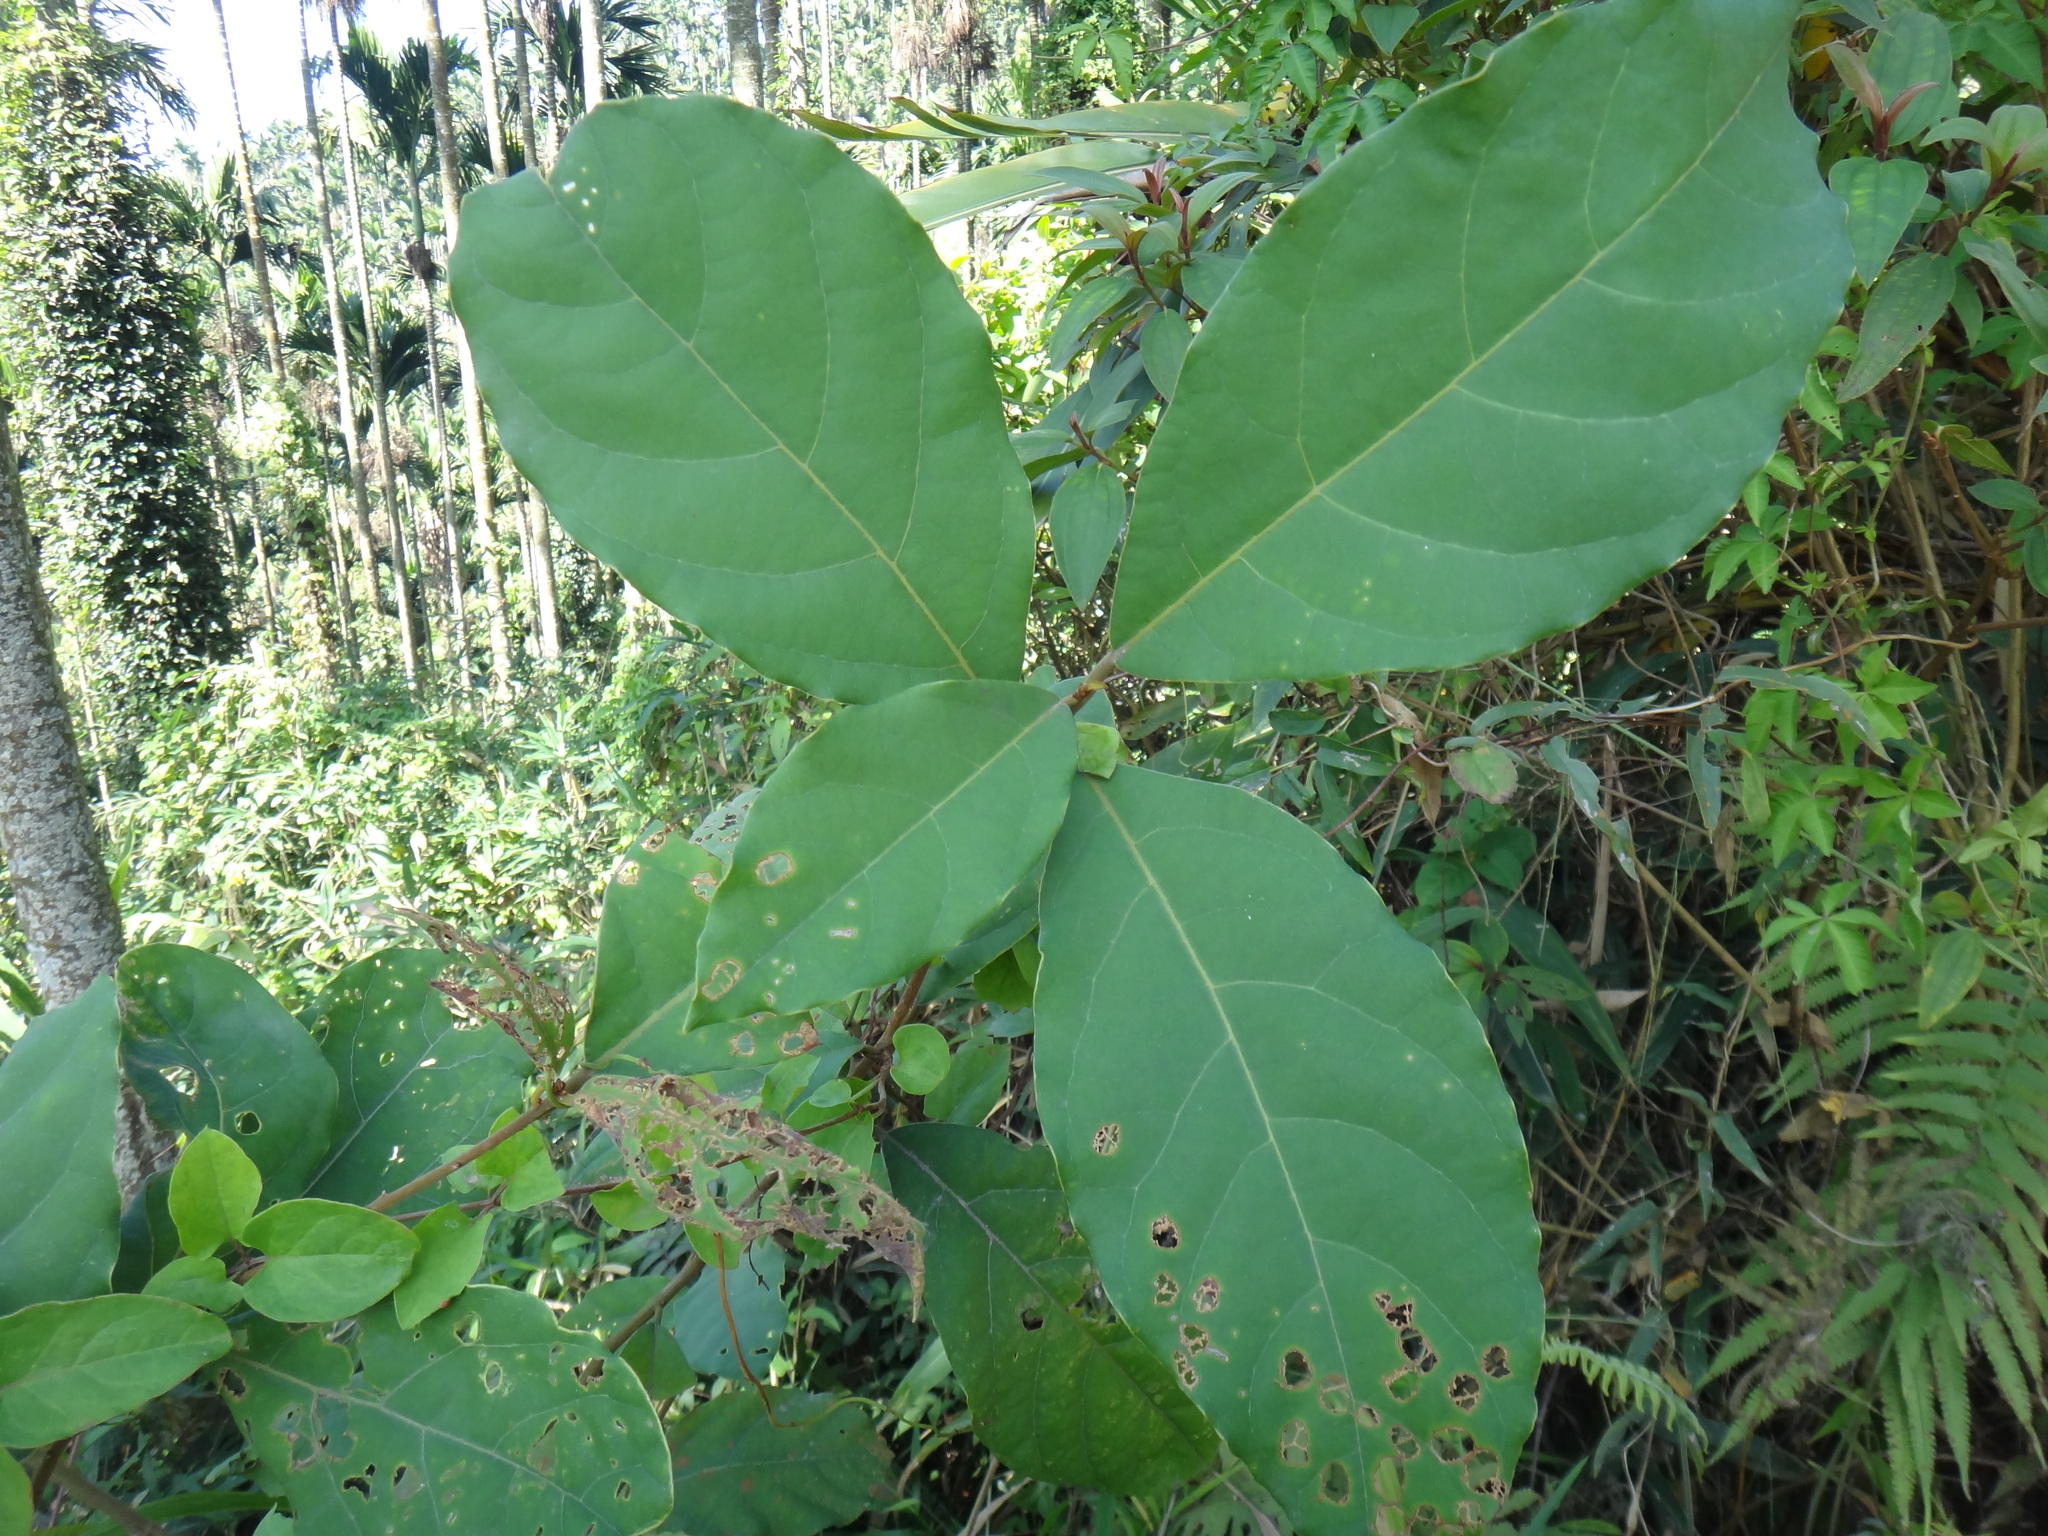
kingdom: Plantae
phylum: Tracheophyta
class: Magnoliopsida
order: Laurales
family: Lauraceae
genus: Litsea
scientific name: Litsea akoensis
